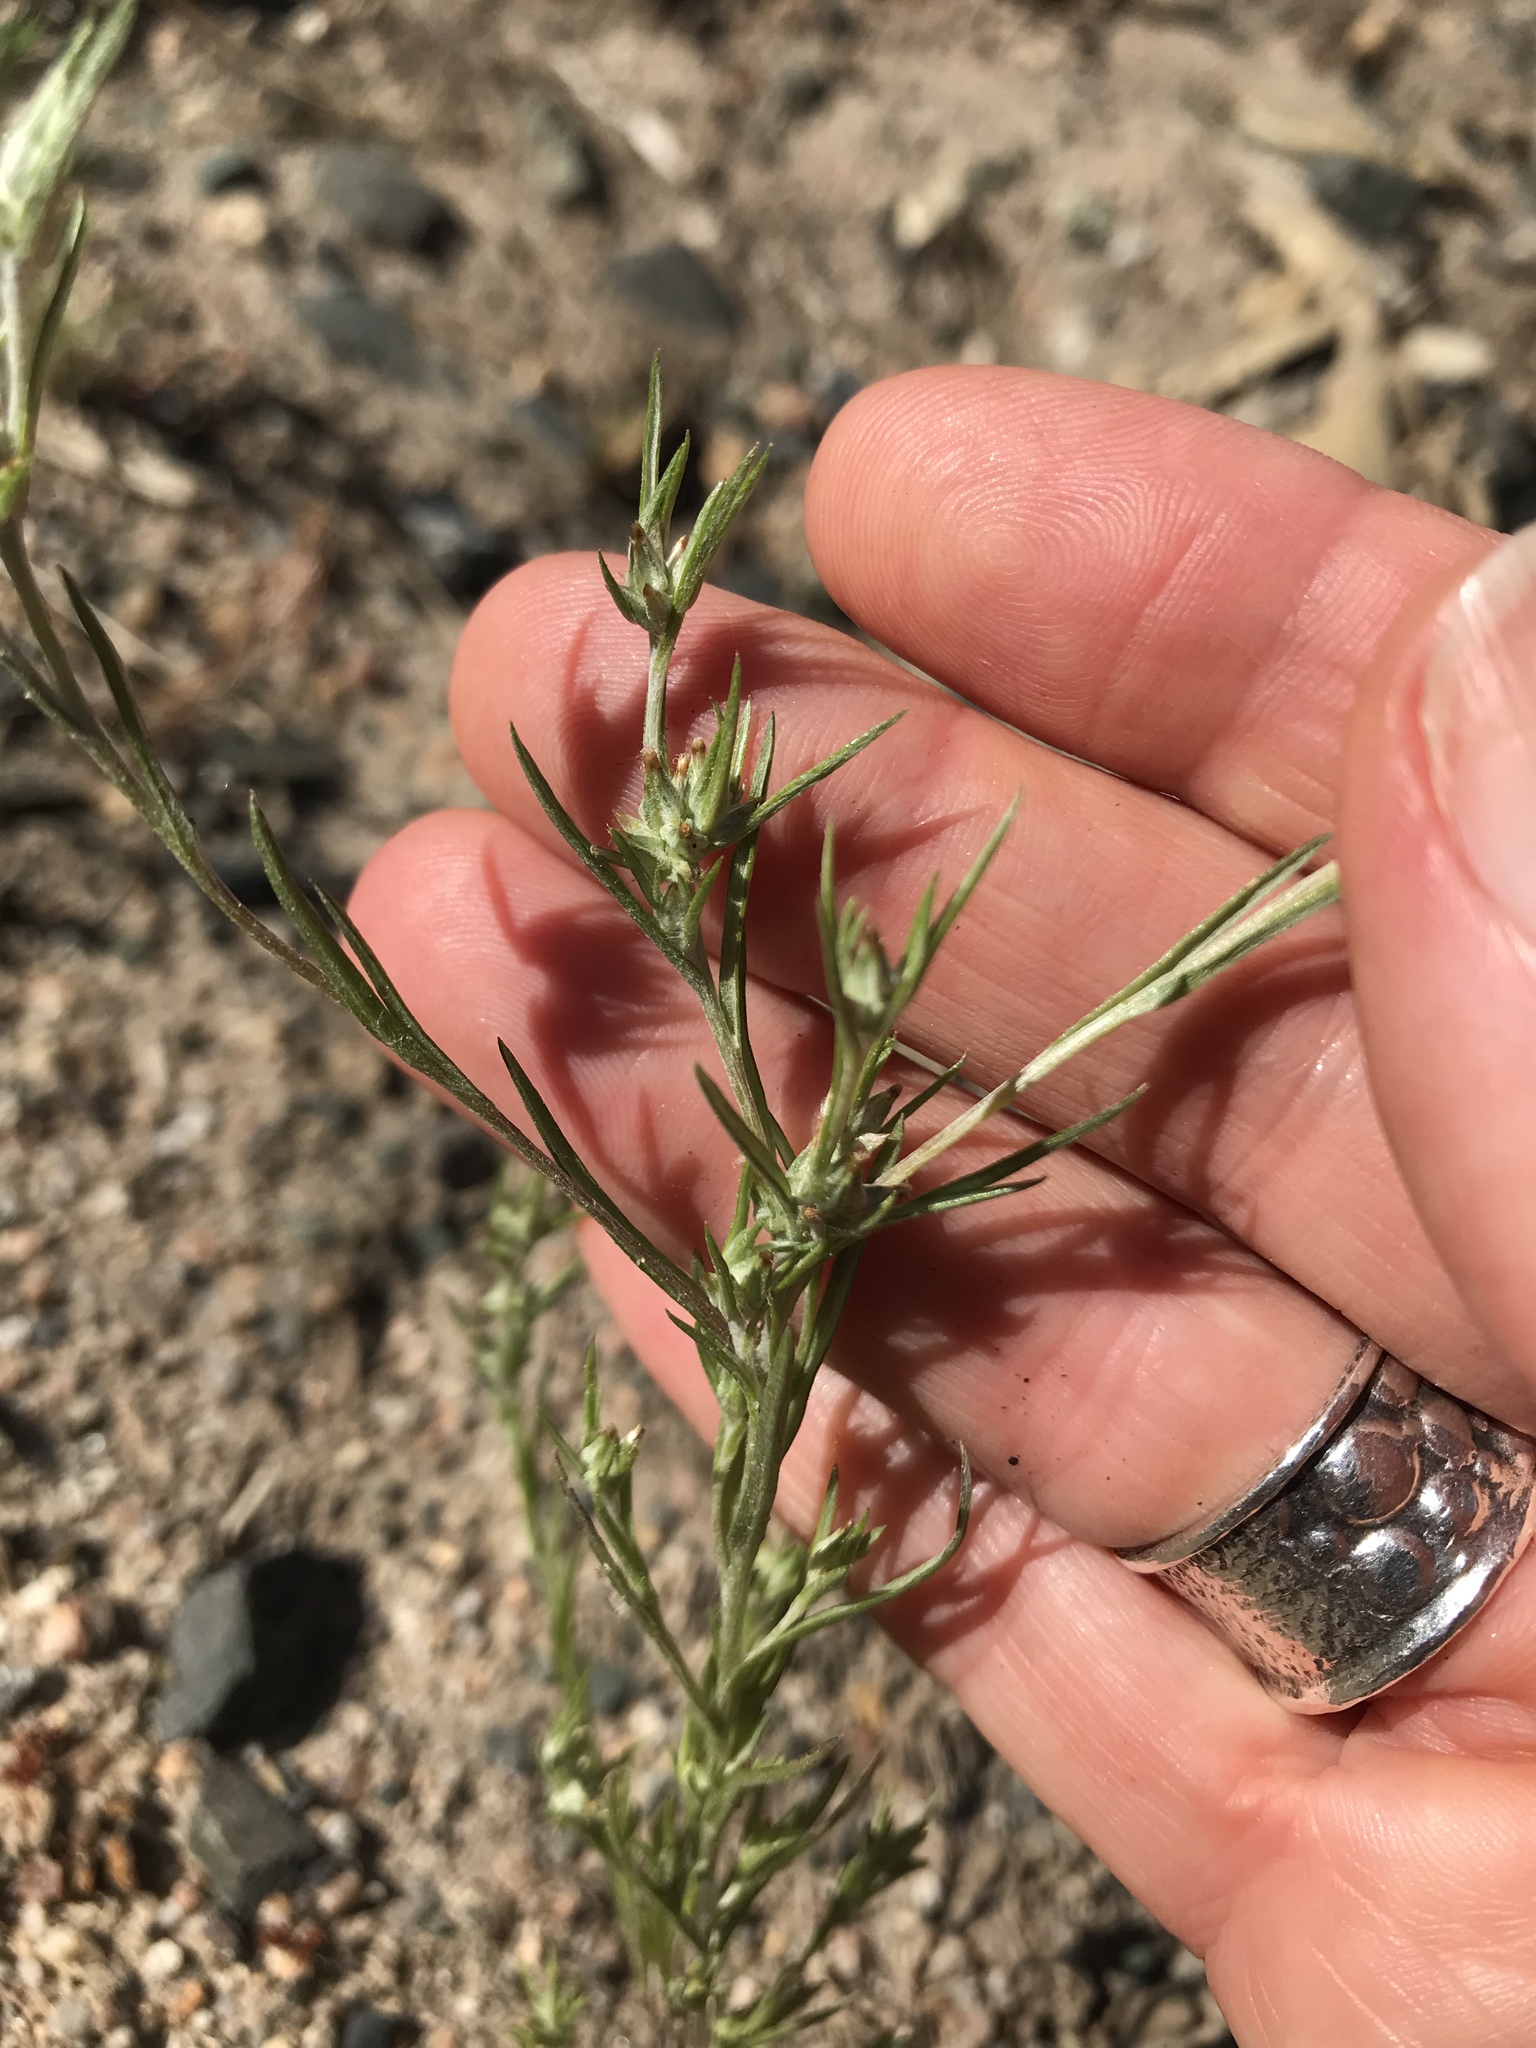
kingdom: Plantae
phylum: Tracheophyta
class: Magnoliopsida
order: Asterales
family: Asteraceae
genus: Logfia
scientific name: Logfia gallica
